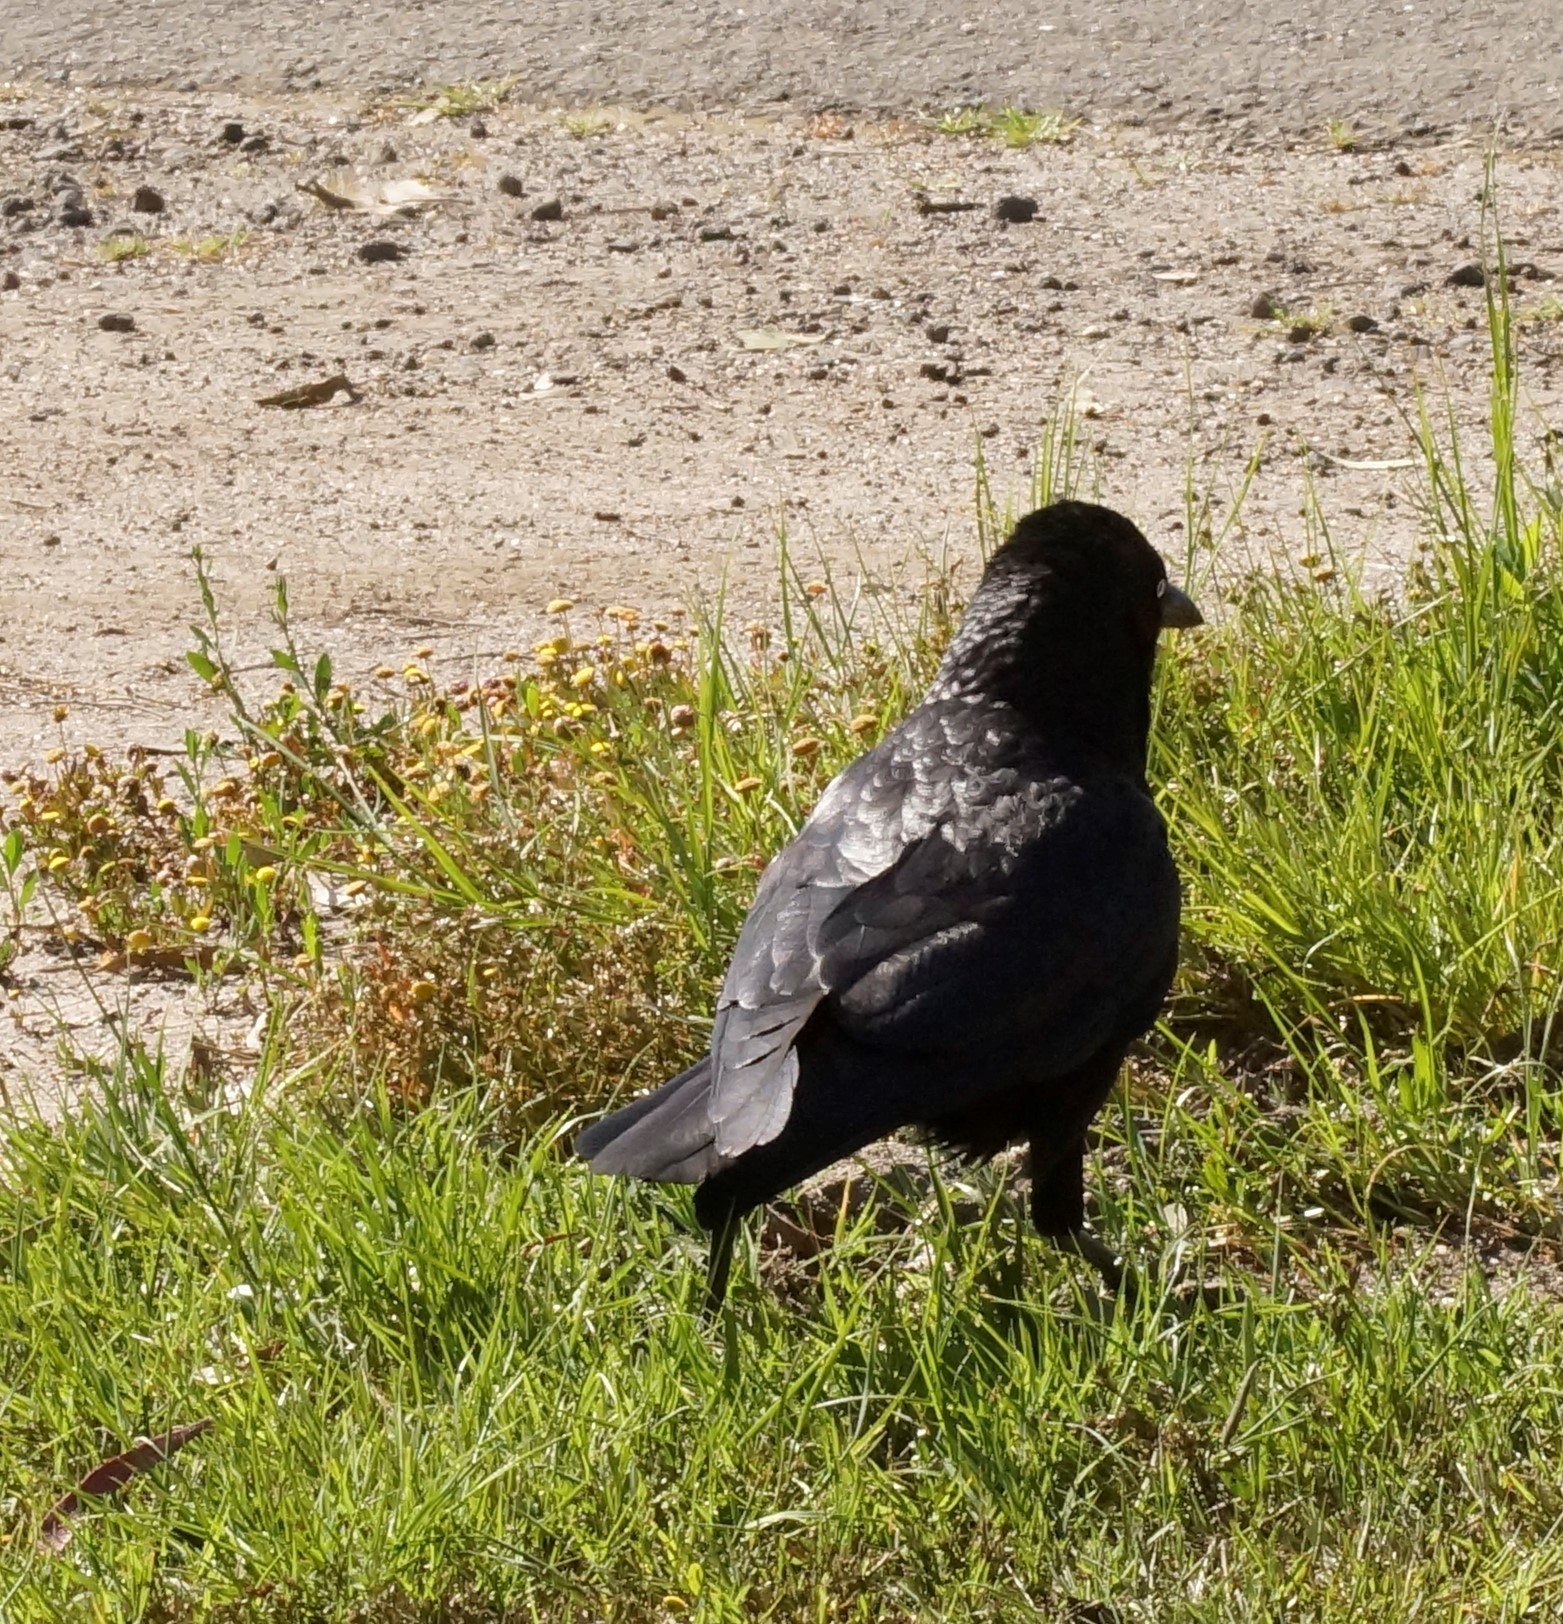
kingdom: Animalia
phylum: Chordata
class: Aves
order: Passeriformes
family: Corvidae
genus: Corvus
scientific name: Corvus mellori
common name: Little raven
